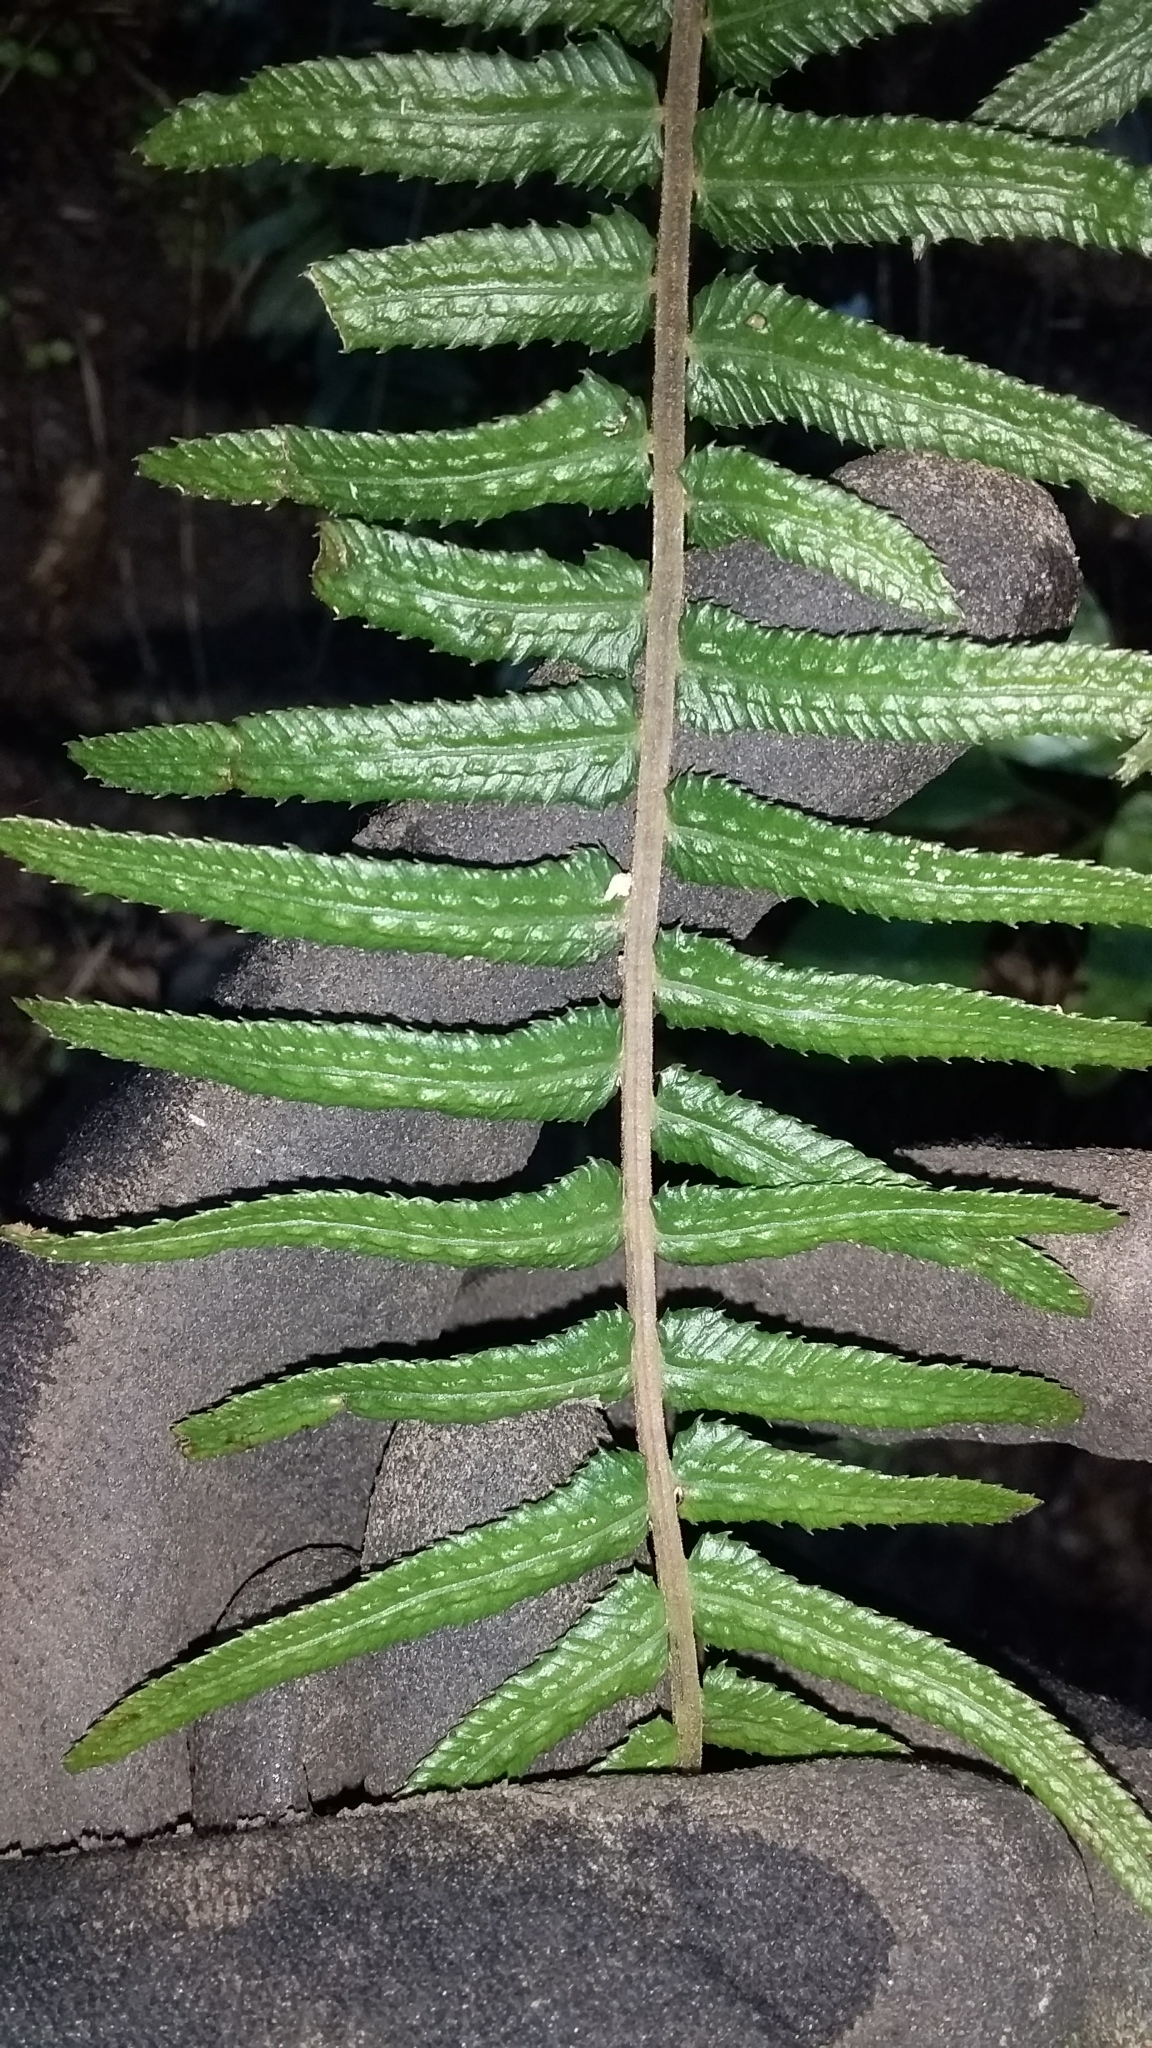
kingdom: Plantae
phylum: Tracheophyta
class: Polypodiopsida
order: Polypodiales
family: Blechnaceae
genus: Doodia
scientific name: Doodia australis
